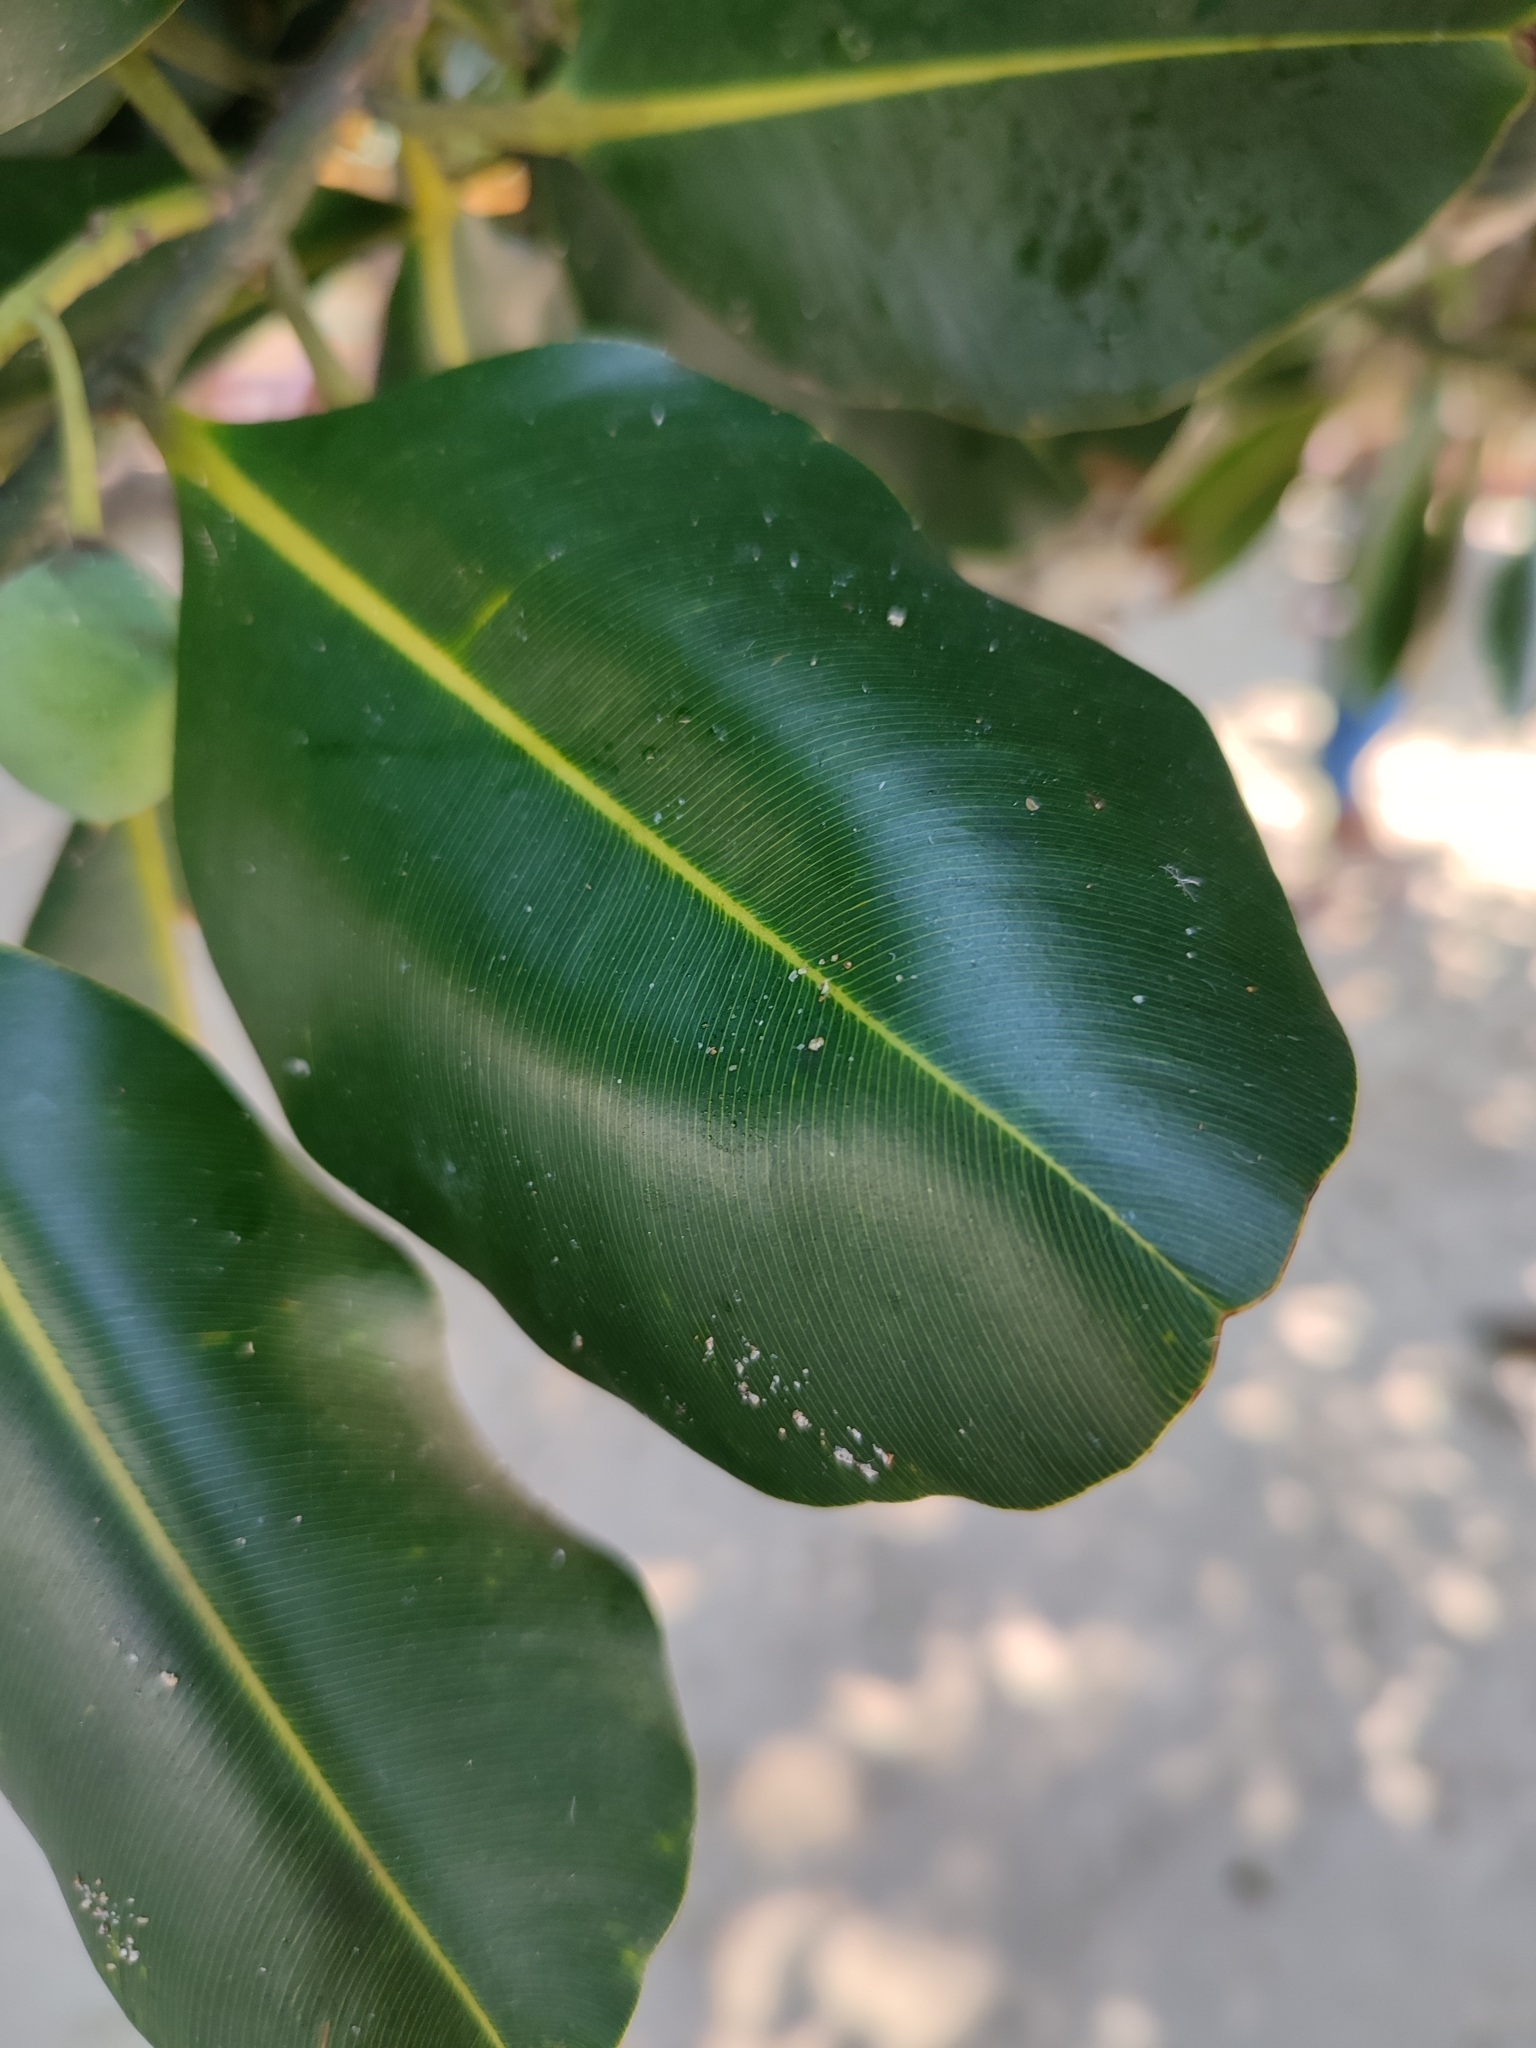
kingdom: Plantae
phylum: Tracheophyta
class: Magnoliopsida
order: Malpighiales
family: Calophyllaceae
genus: Calophyllum
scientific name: Calophyllum inophyllum
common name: Alexandrian laurel
